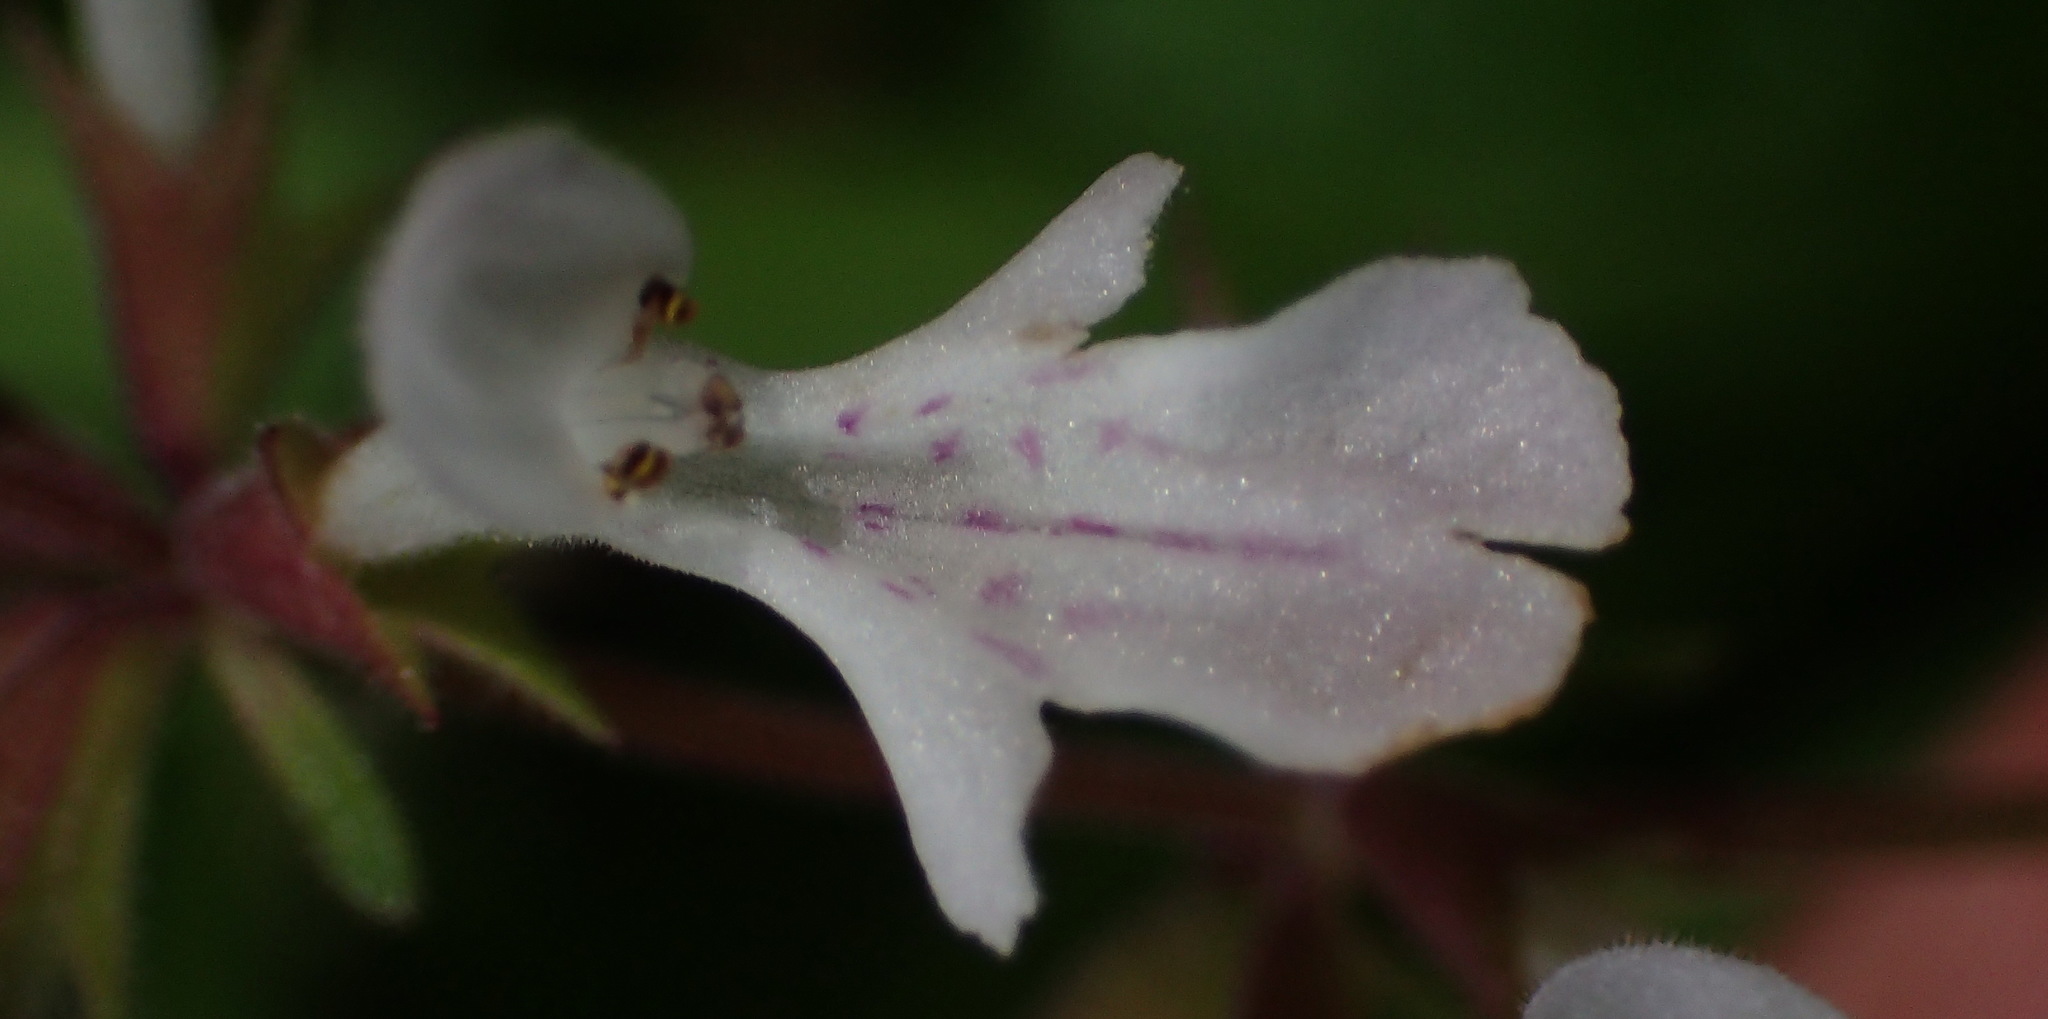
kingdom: Plantae
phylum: Tracheophyta
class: Magnoliopsida
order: Lamiales
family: Lamiaceae
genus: Stachys
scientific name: Stachys aethiopica
